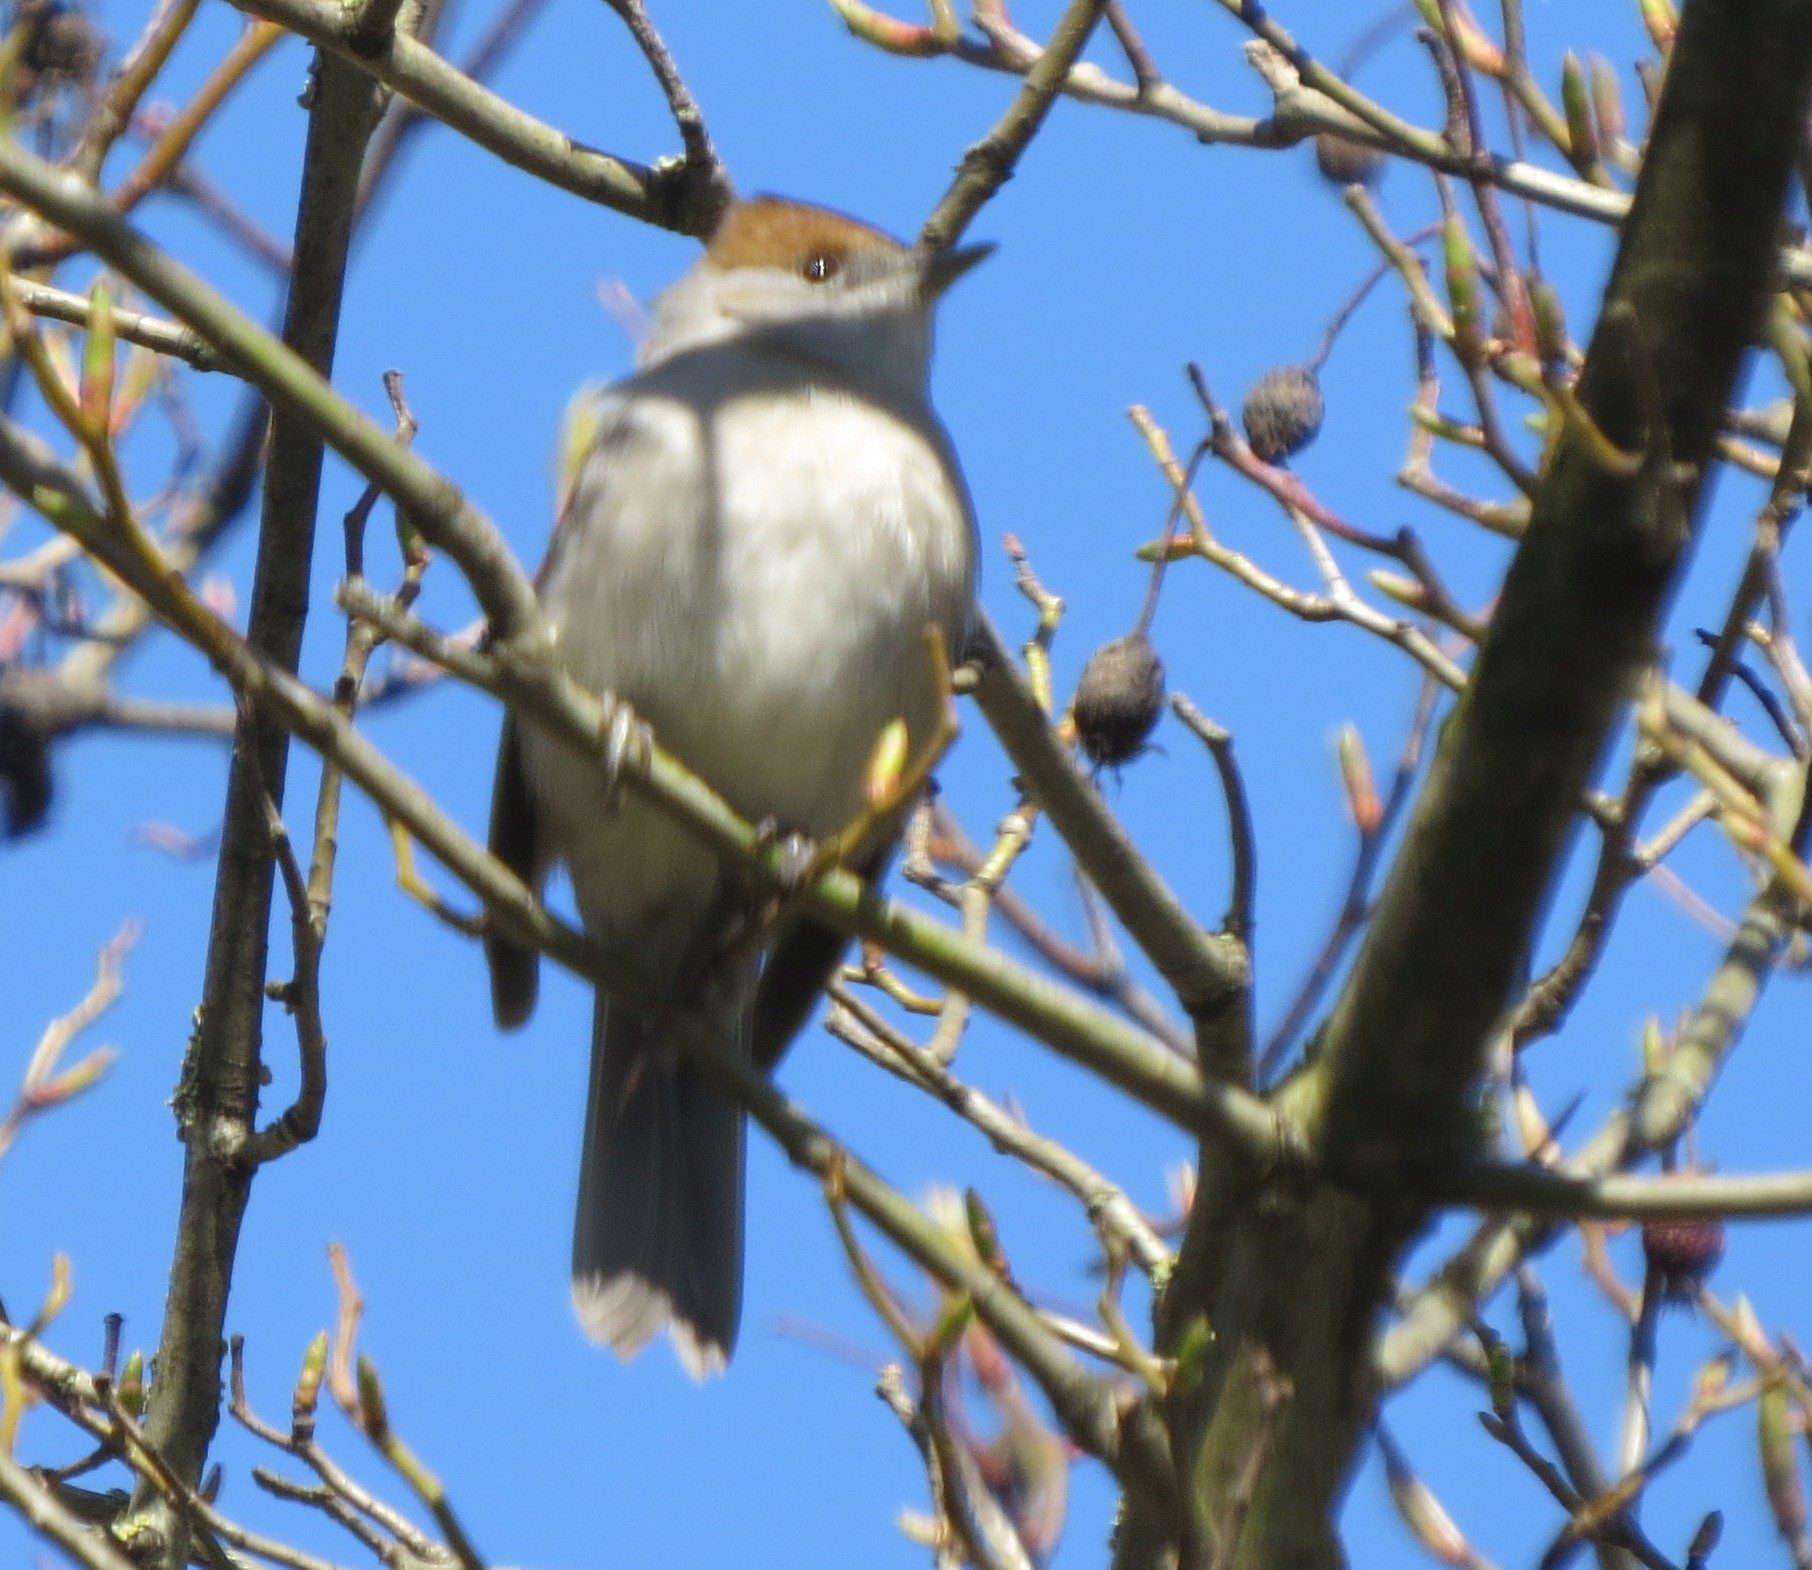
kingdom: Animalia
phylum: Chordata
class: Aves
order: Passeriformes
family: Sylviidae
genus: Sylvia
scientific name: Sylvia atricapilla
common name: Eurasian blackcap
